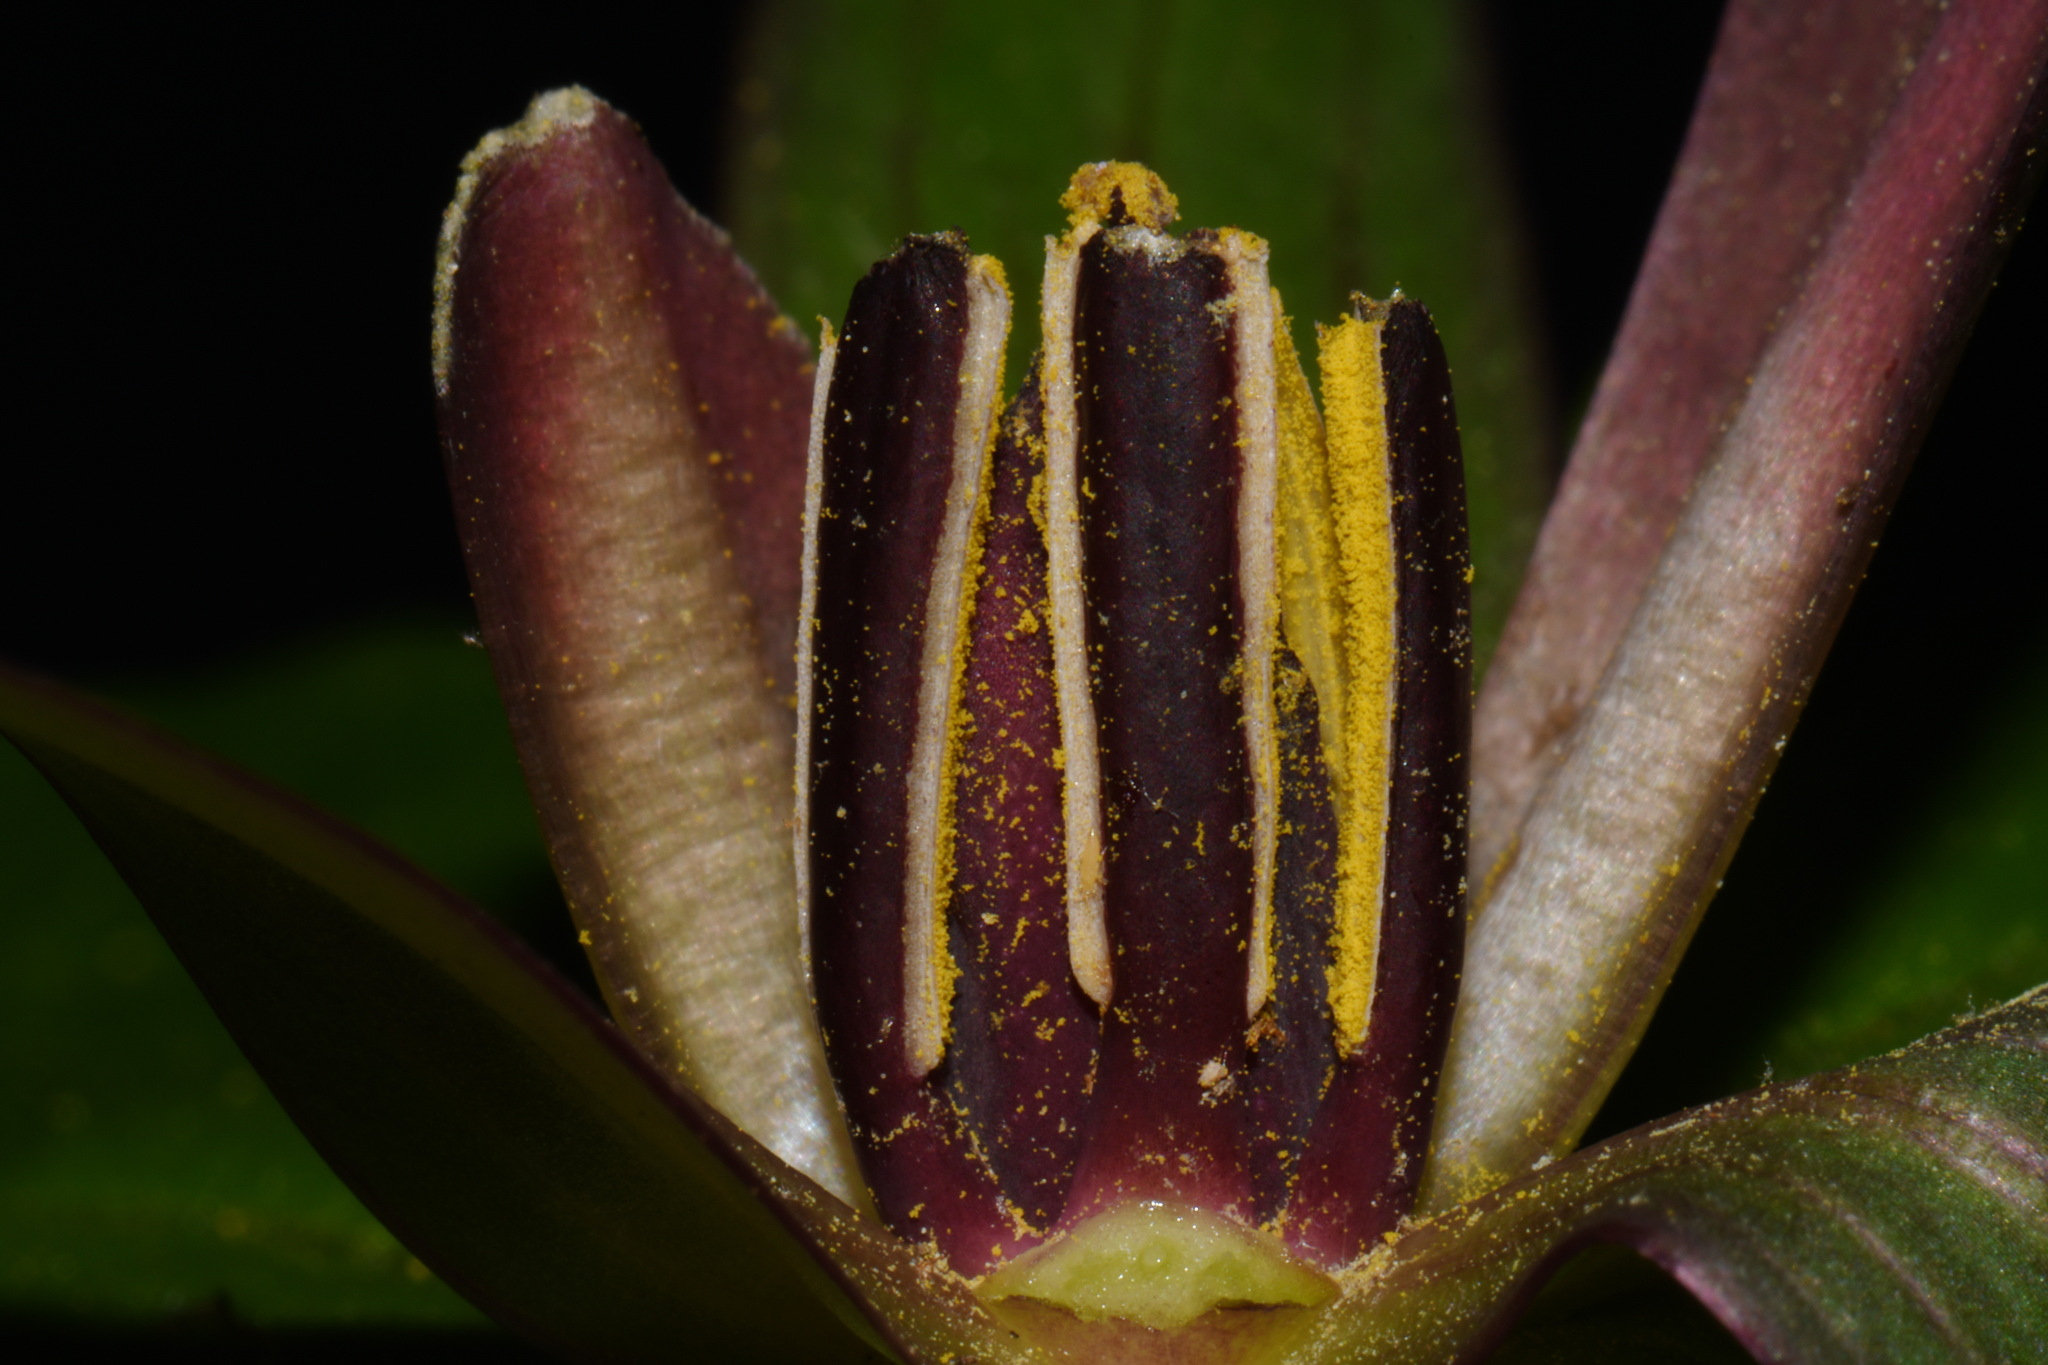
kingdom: Plantae
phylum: Tracheophyta
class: Liliopsida
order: Liliales
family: Melanthiaceae
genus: Trillium
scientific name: Trillium cuneatum
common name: Cuneate trillium
